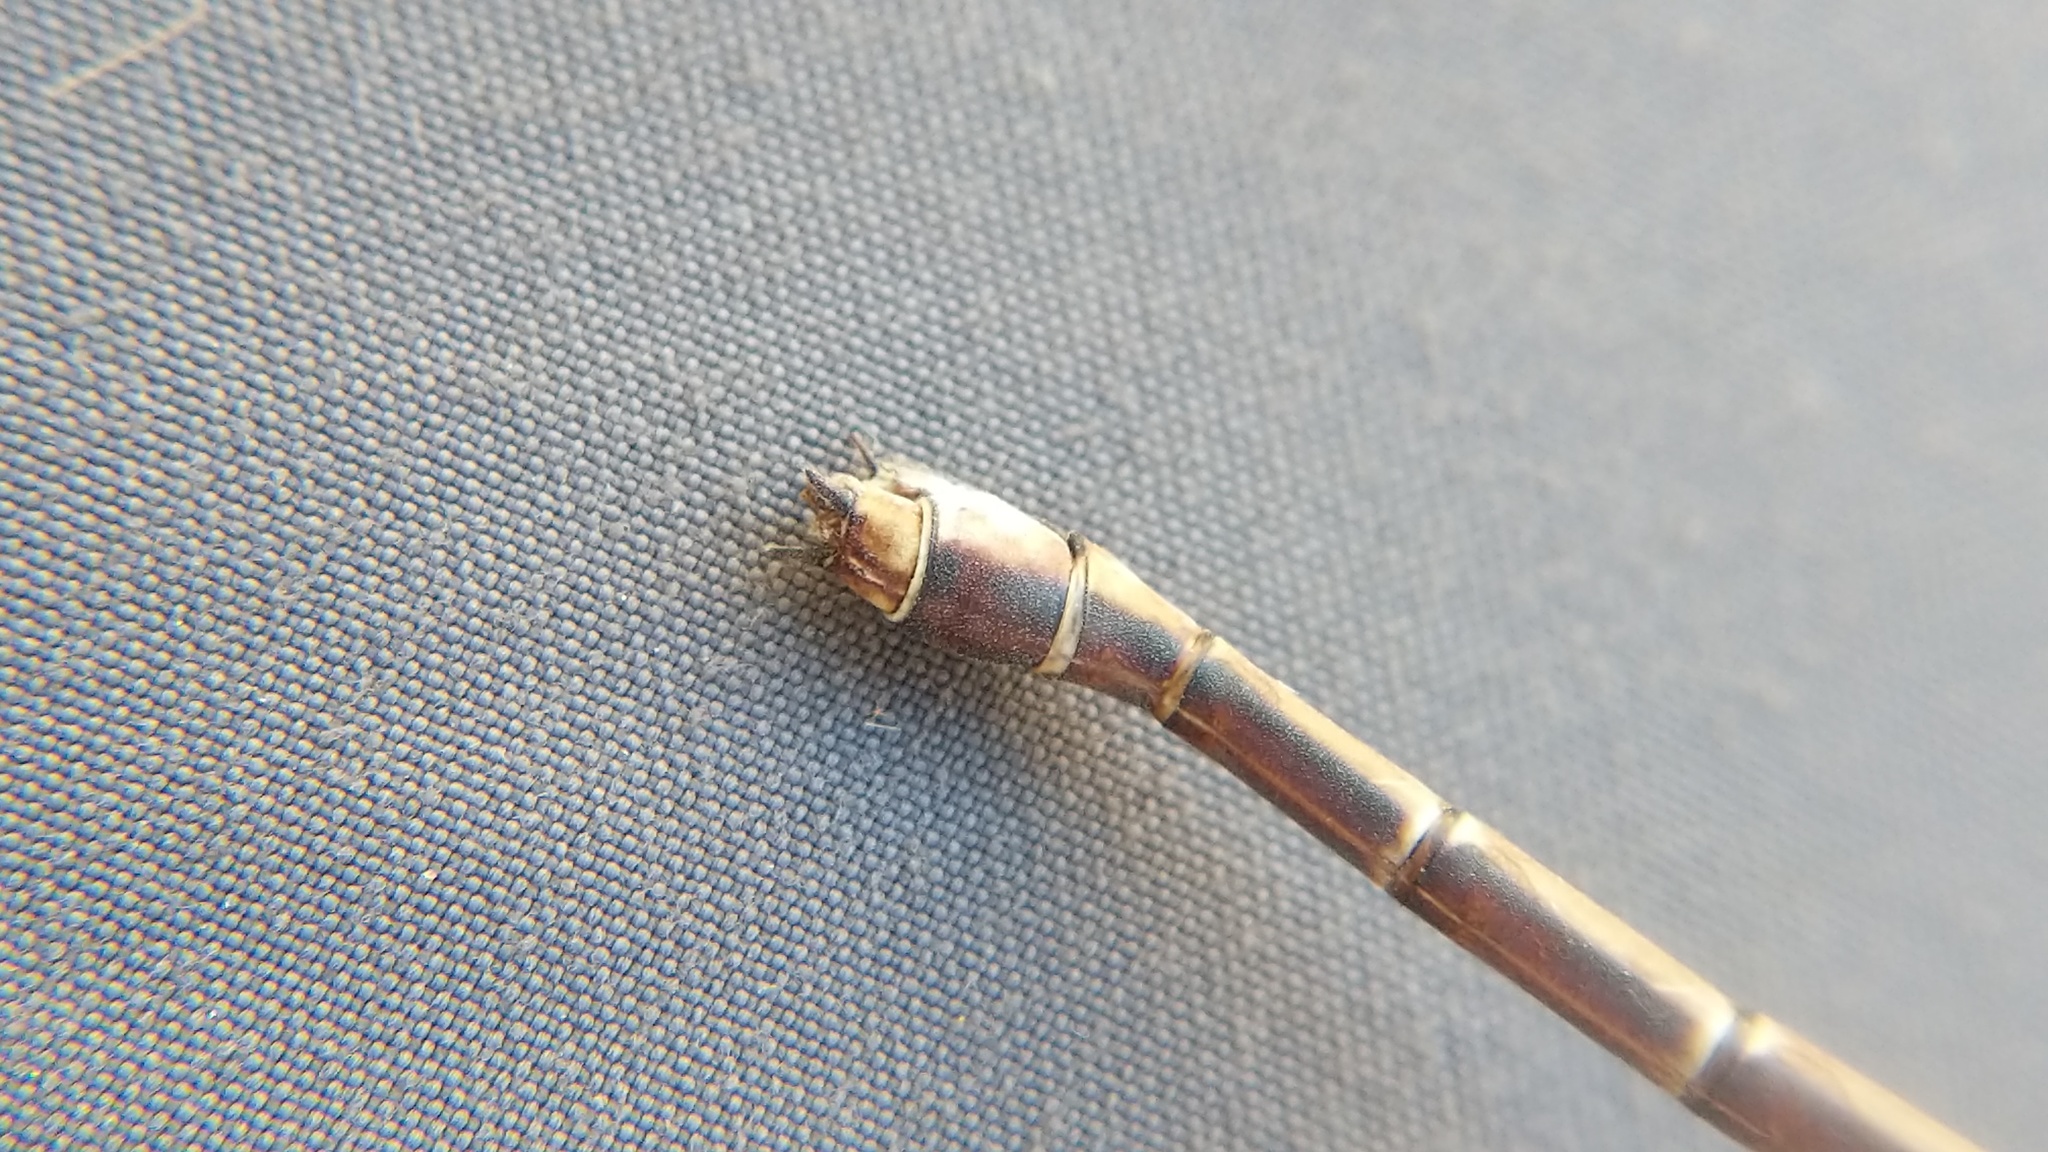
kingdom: Animalia
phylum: Arthropoda
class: Insecta
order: Odonata
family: Lestidae
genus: Archilestes
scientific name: Archilestes californicus
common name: California spreadwing
